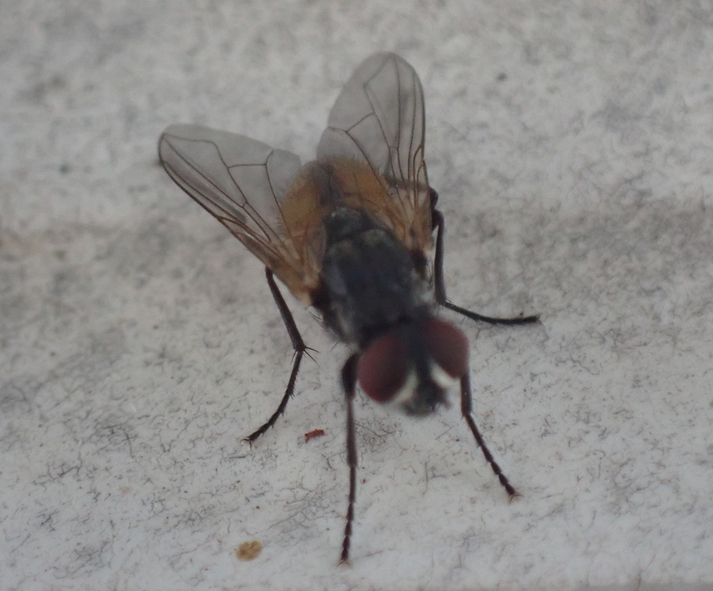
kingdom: Animalia
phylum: Arthropoda
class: Insecta
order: Diptera
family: Muscidae
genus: Musca
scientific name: Musca domestica
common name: House fly
